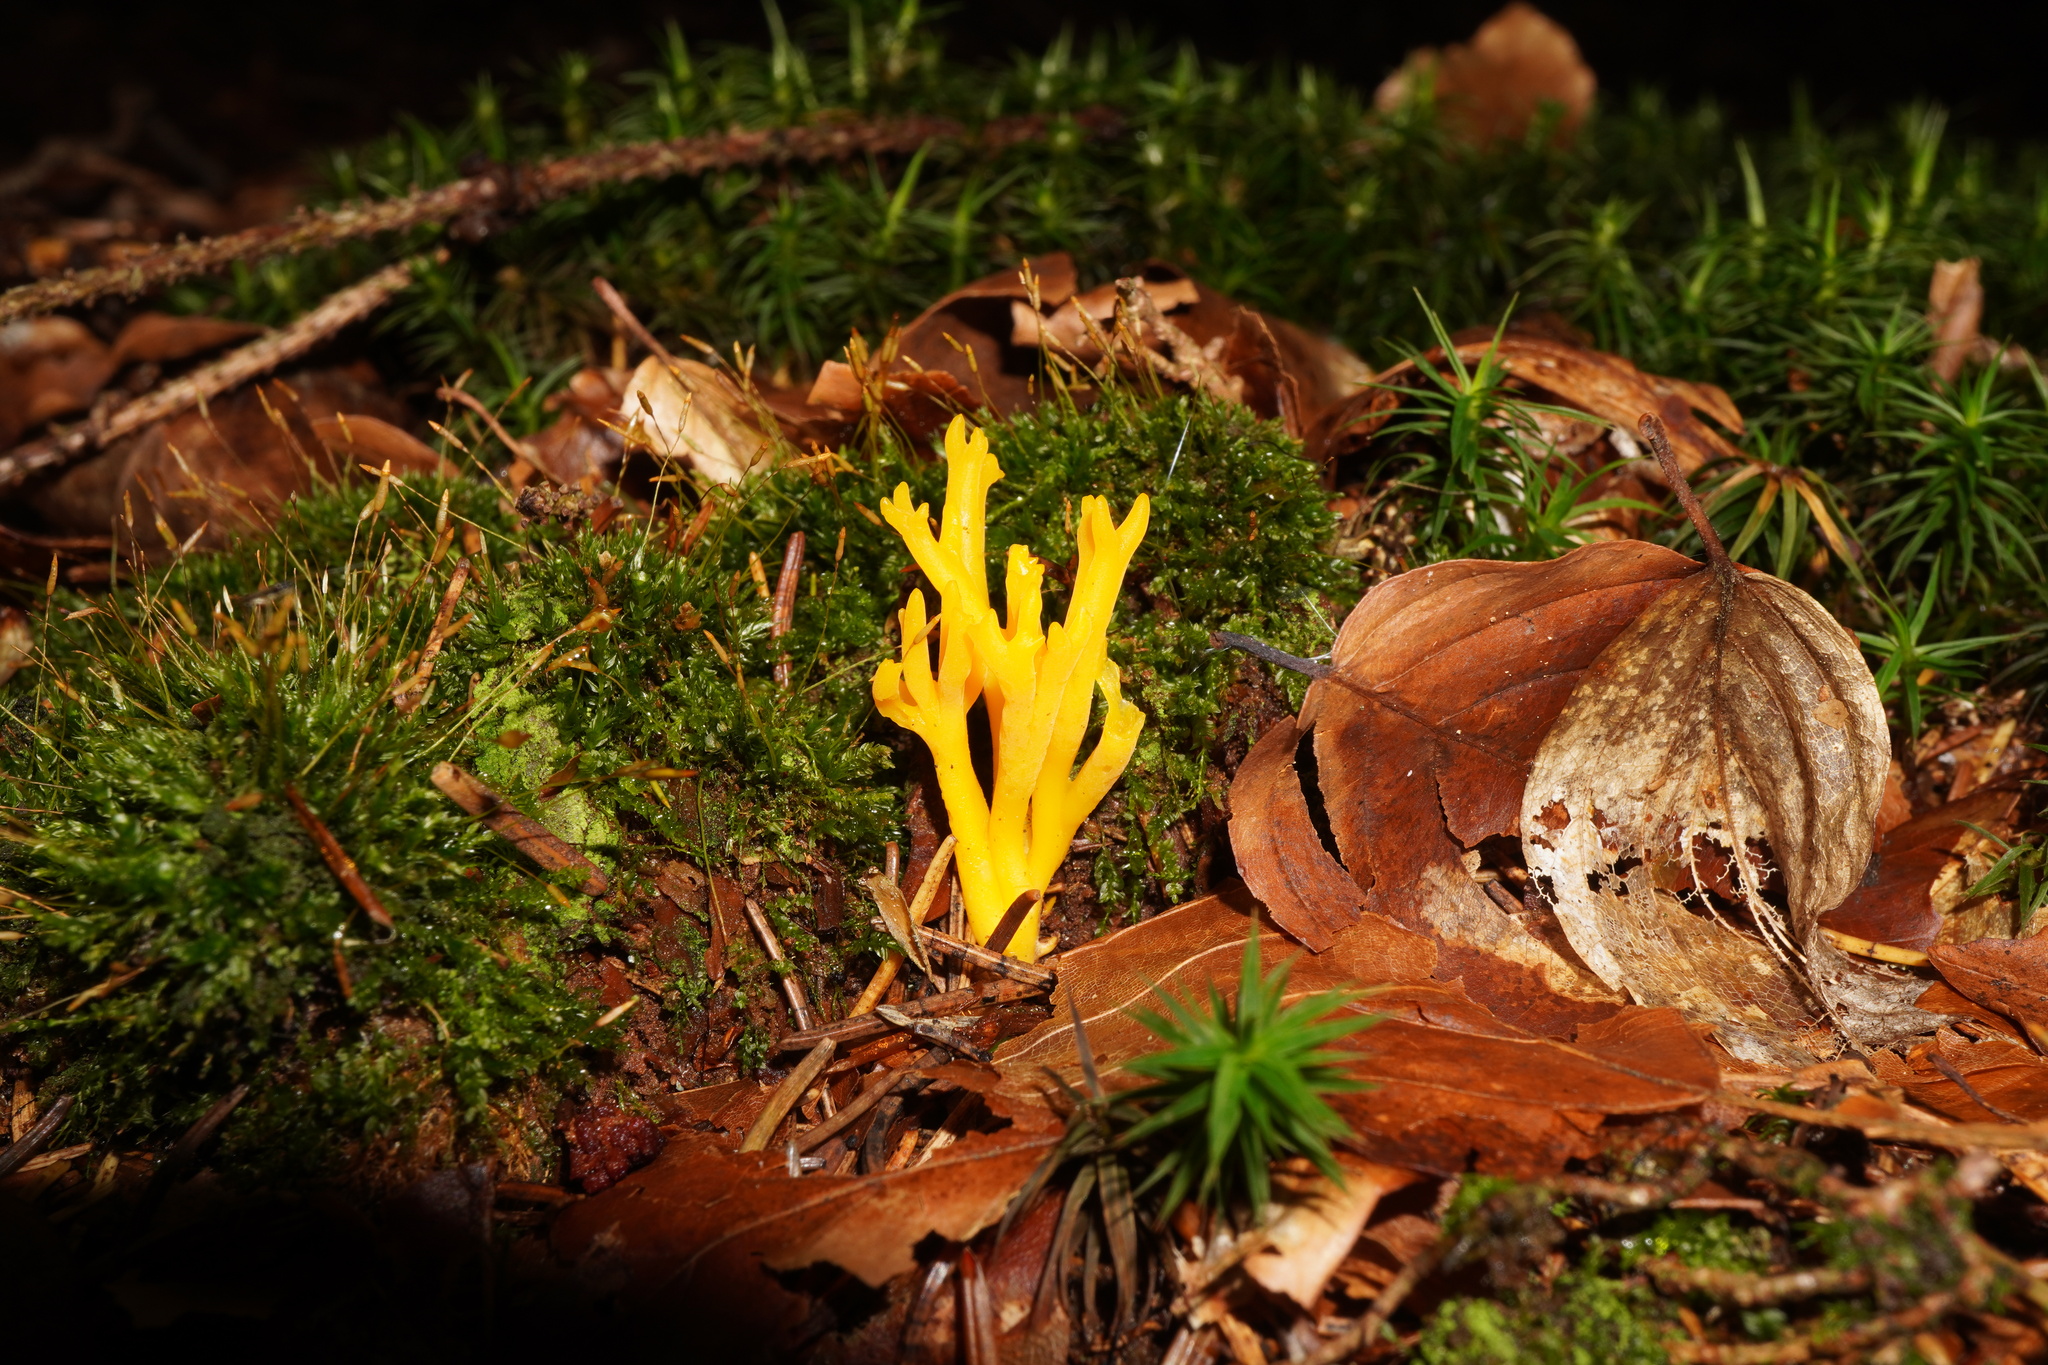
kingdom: Fungi
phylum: Basidiomycota
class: Dacrymycetes
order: Dacrymycetales
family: Dacrymycetaceae
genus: Calocera
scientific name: Calocera viscosa
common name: Yellow stagshorn
